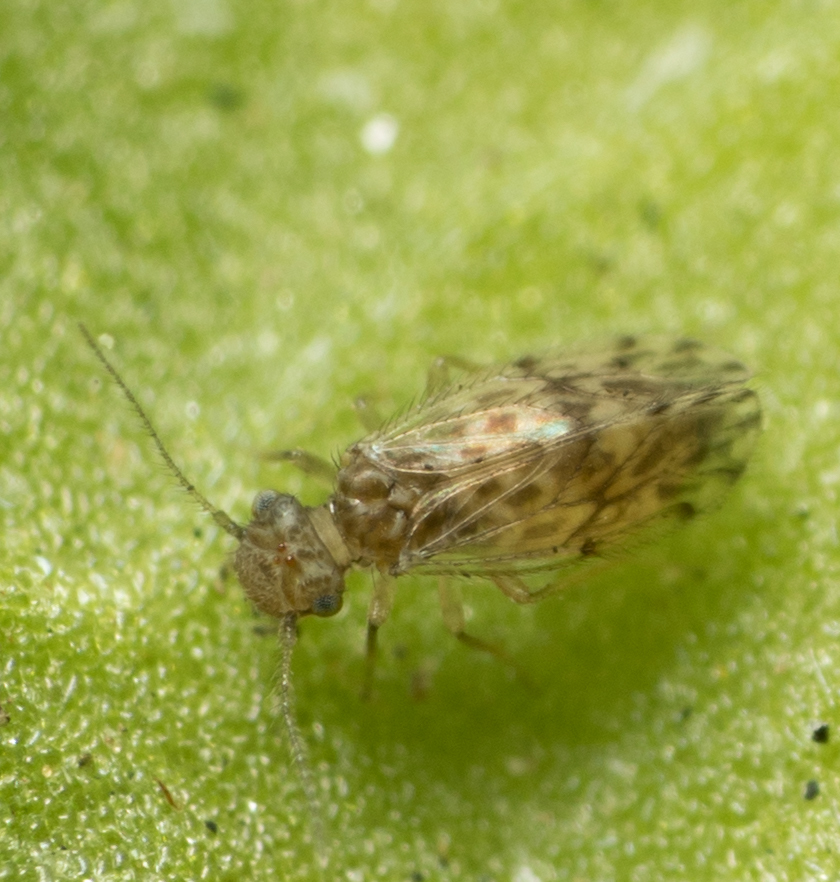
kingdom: Animalia
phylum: Arthropoda
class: Insecta
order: Psocodea
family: Ectopsocidae
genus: Ectopsocus
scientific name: Ectopsocus strauchi
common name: Medium-sized bark louse
